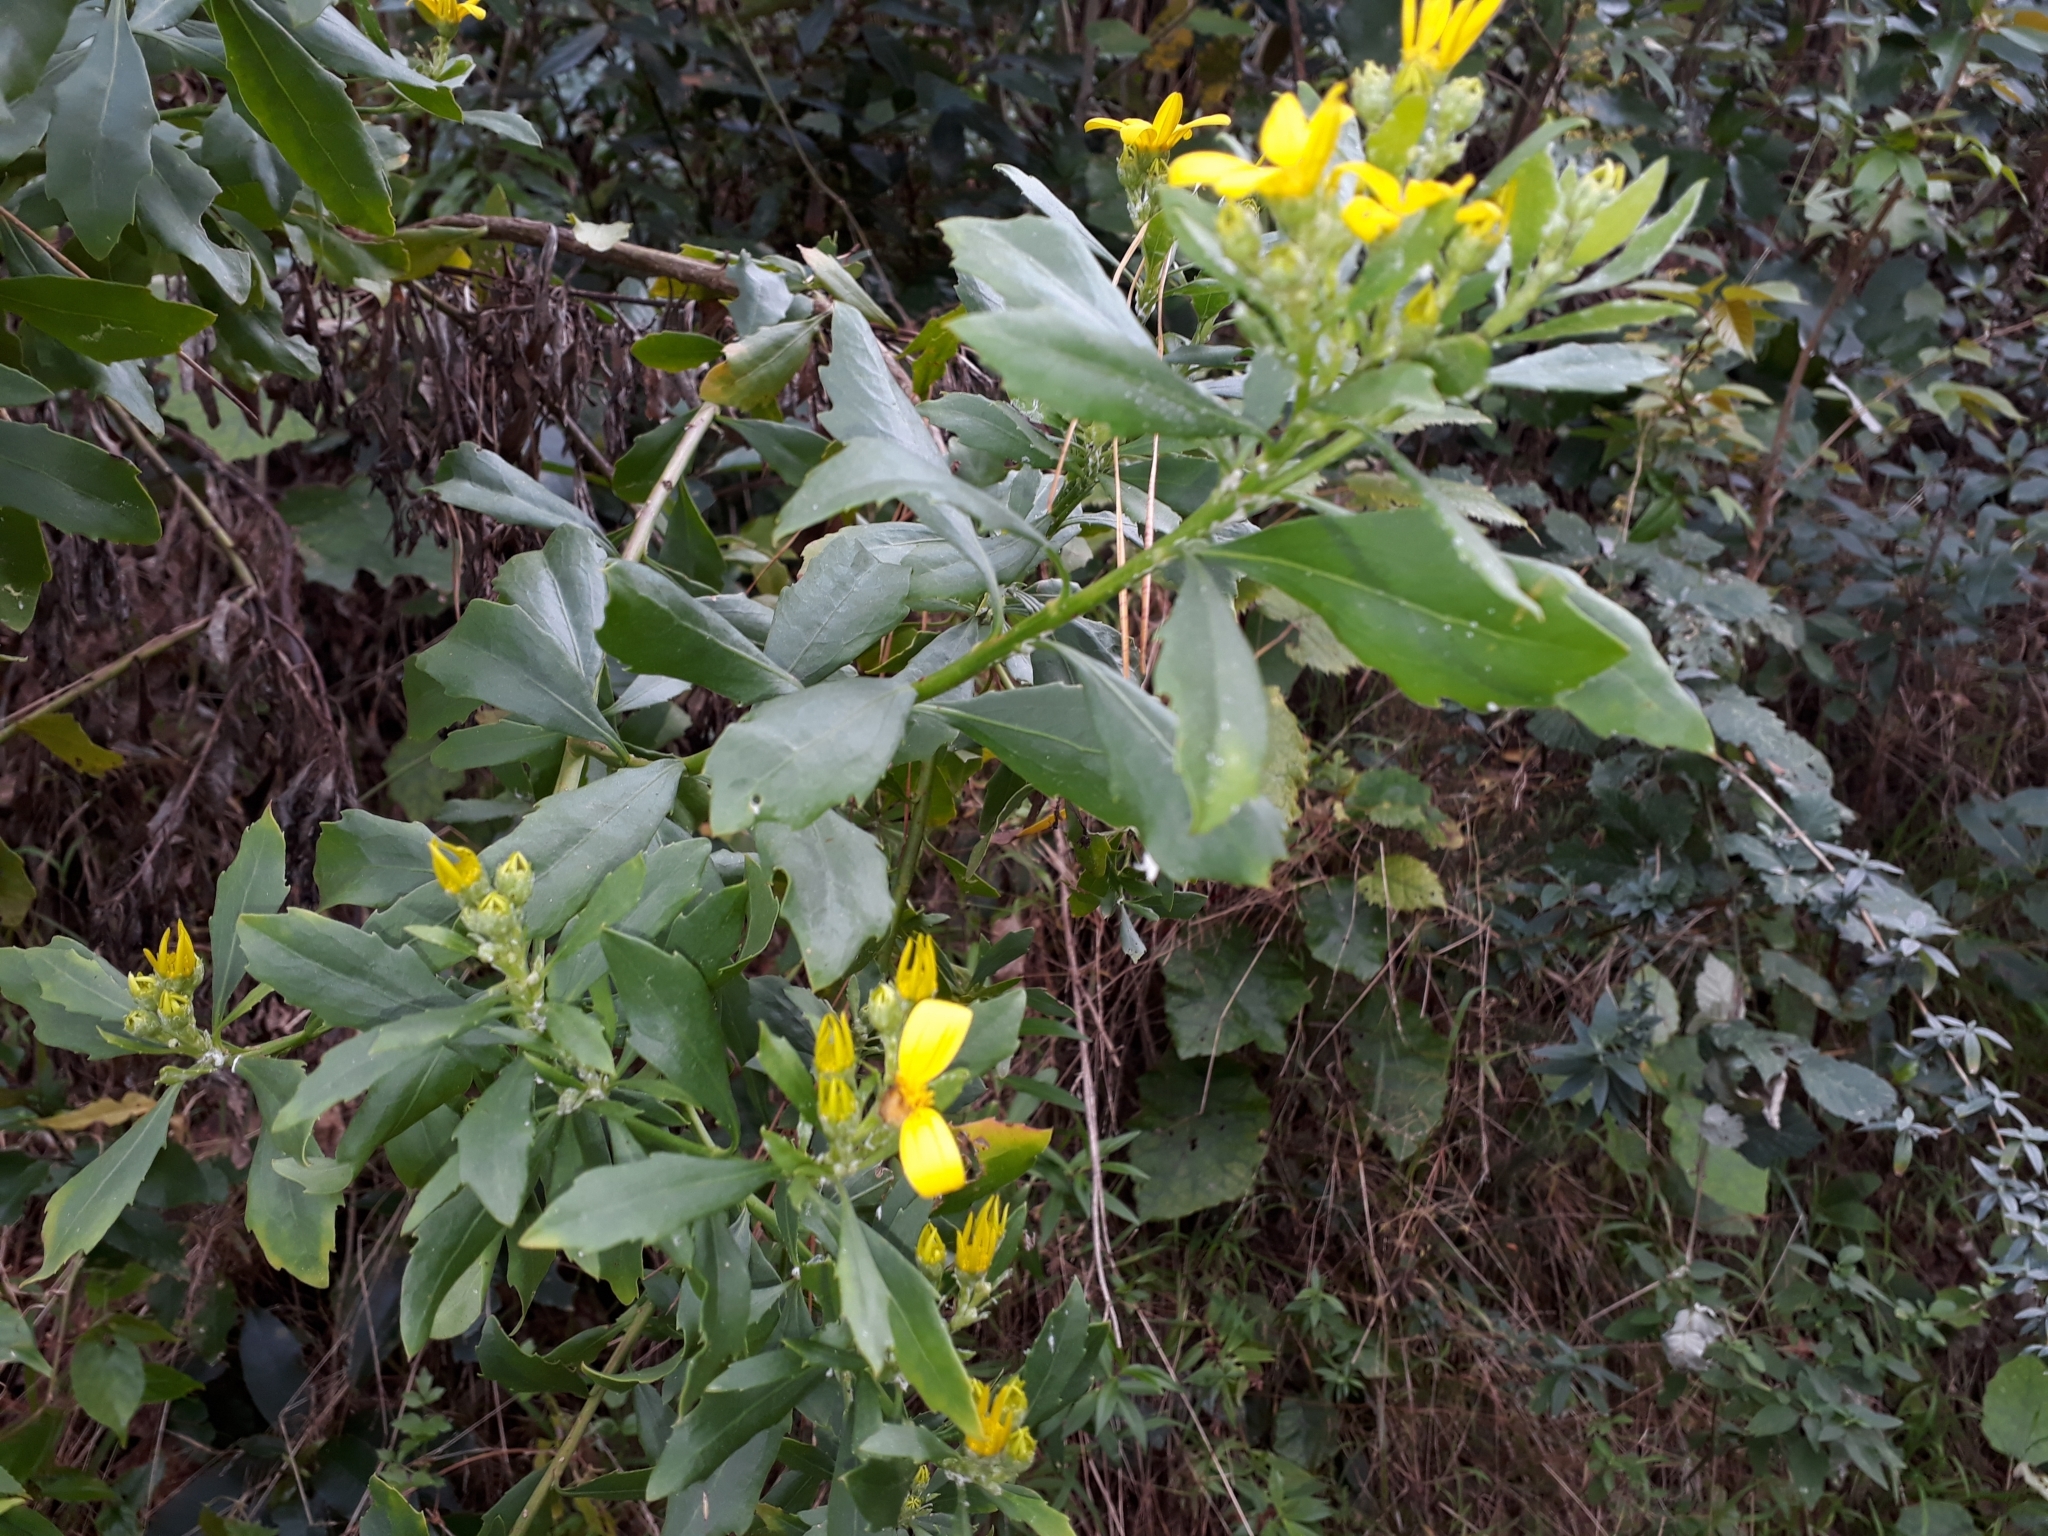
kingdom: Plantae
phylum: Tracheophyta
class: Magnoliopsida
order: Asterales
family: Asteraceae
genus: Osteospermum
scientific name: Osteospermum moniliferum
